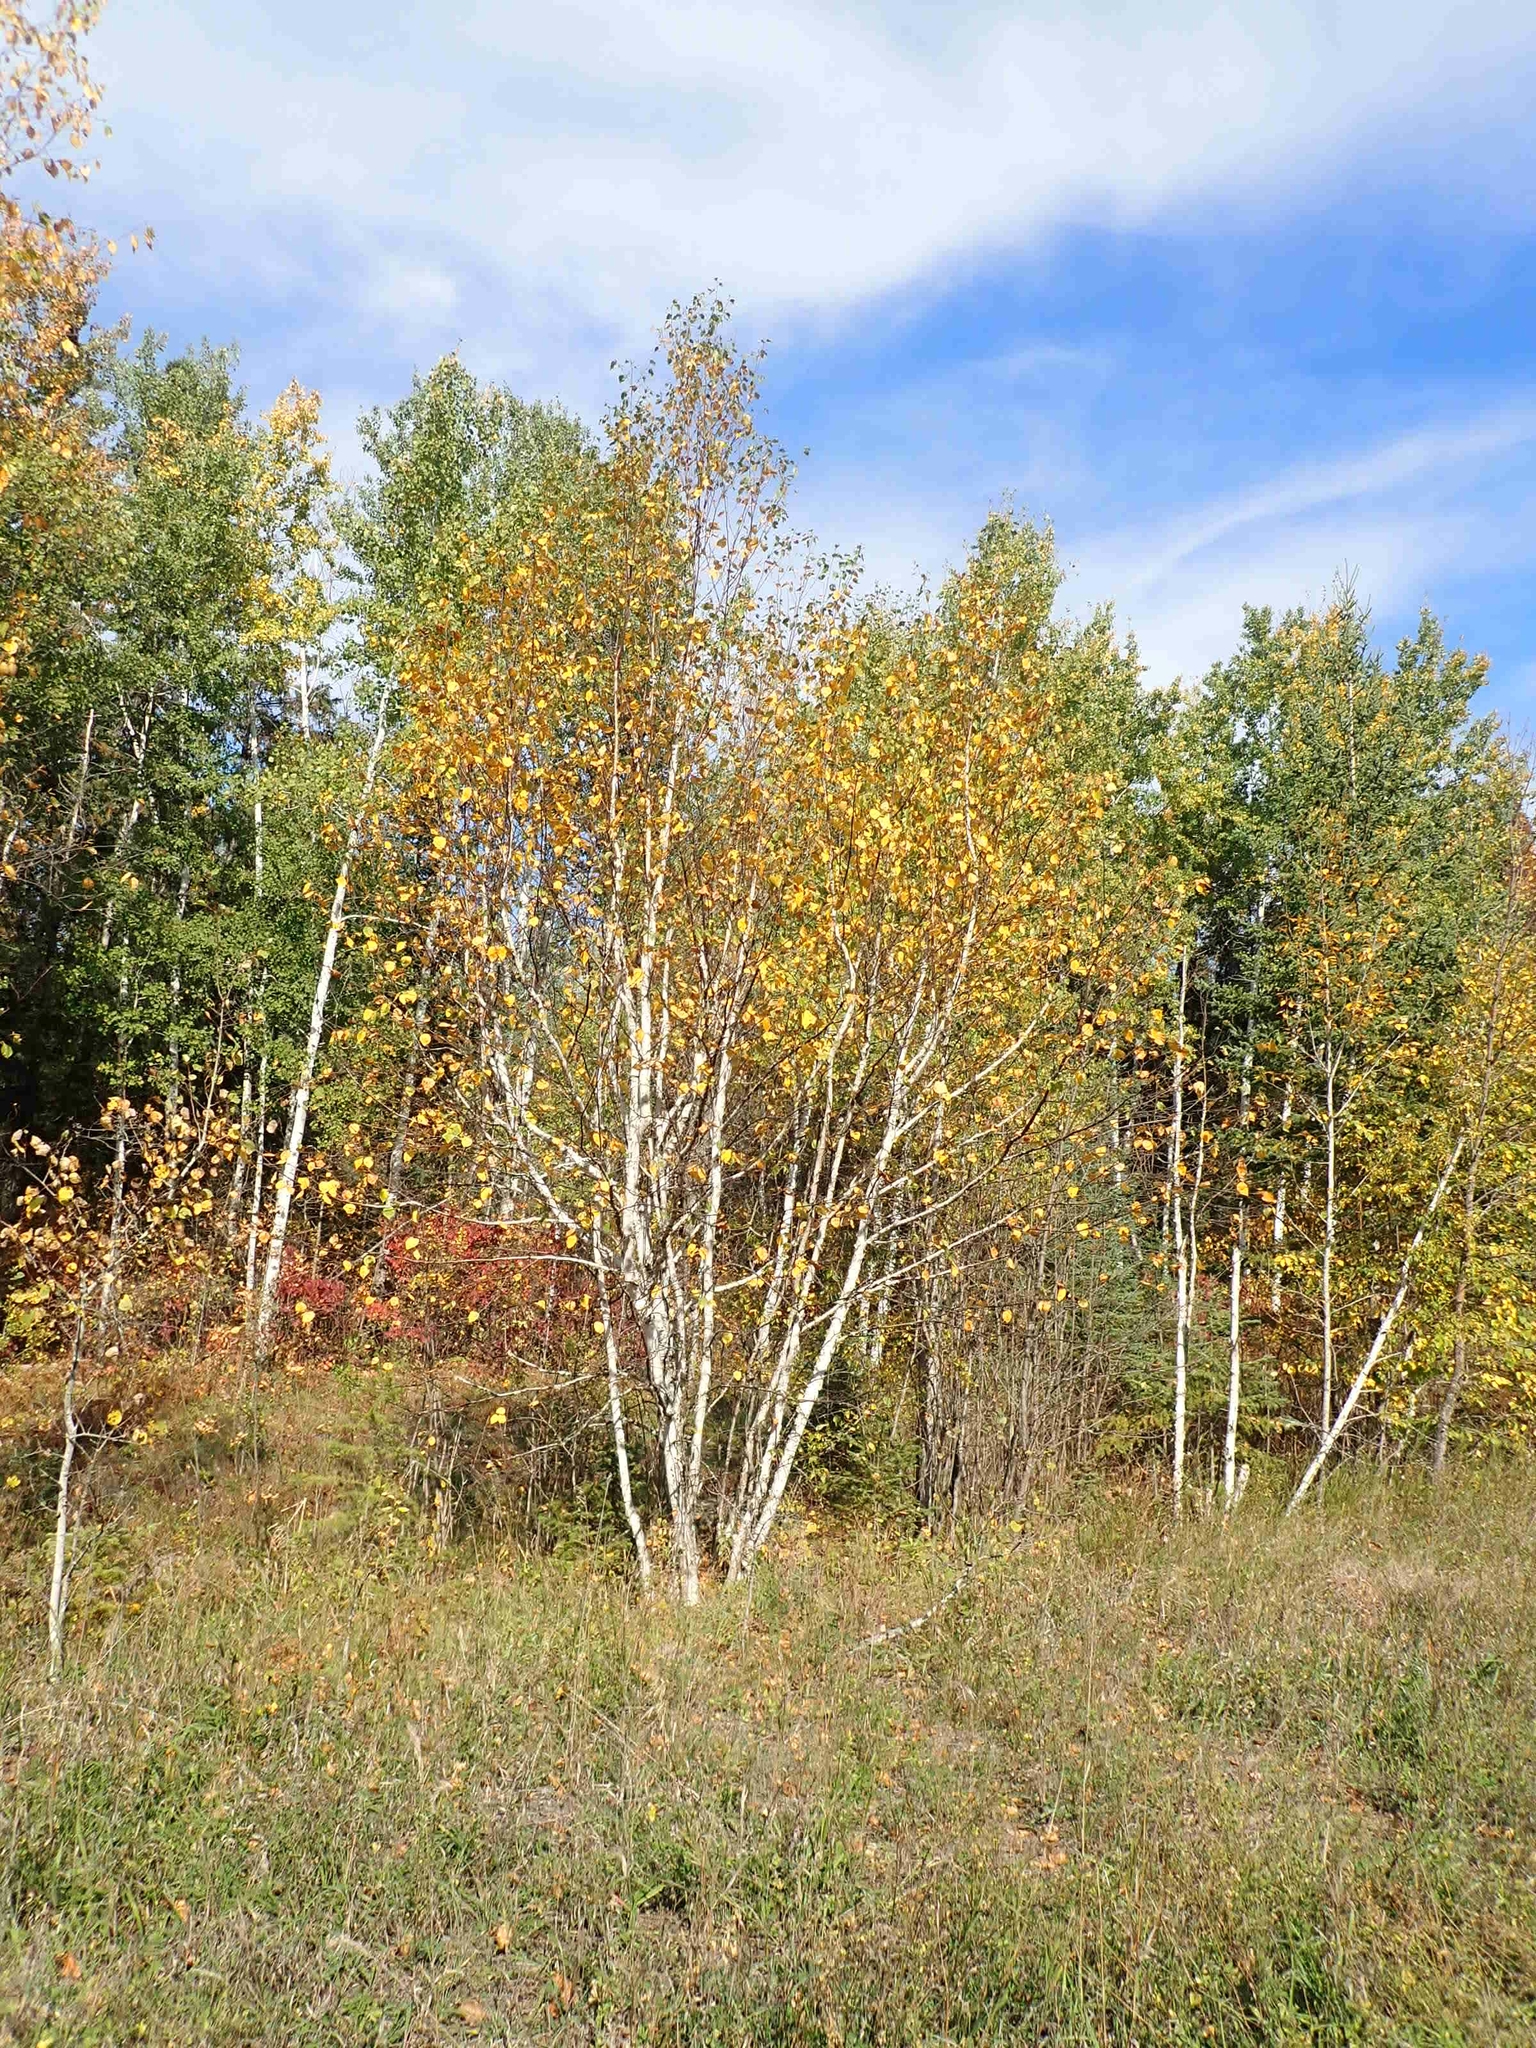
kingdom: Plantae
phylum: Tracheophyta
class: Magnoliopsida
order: Fagales
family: Betulaceae
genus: Betula
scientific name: Betula papyrifera
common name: Paper birch
